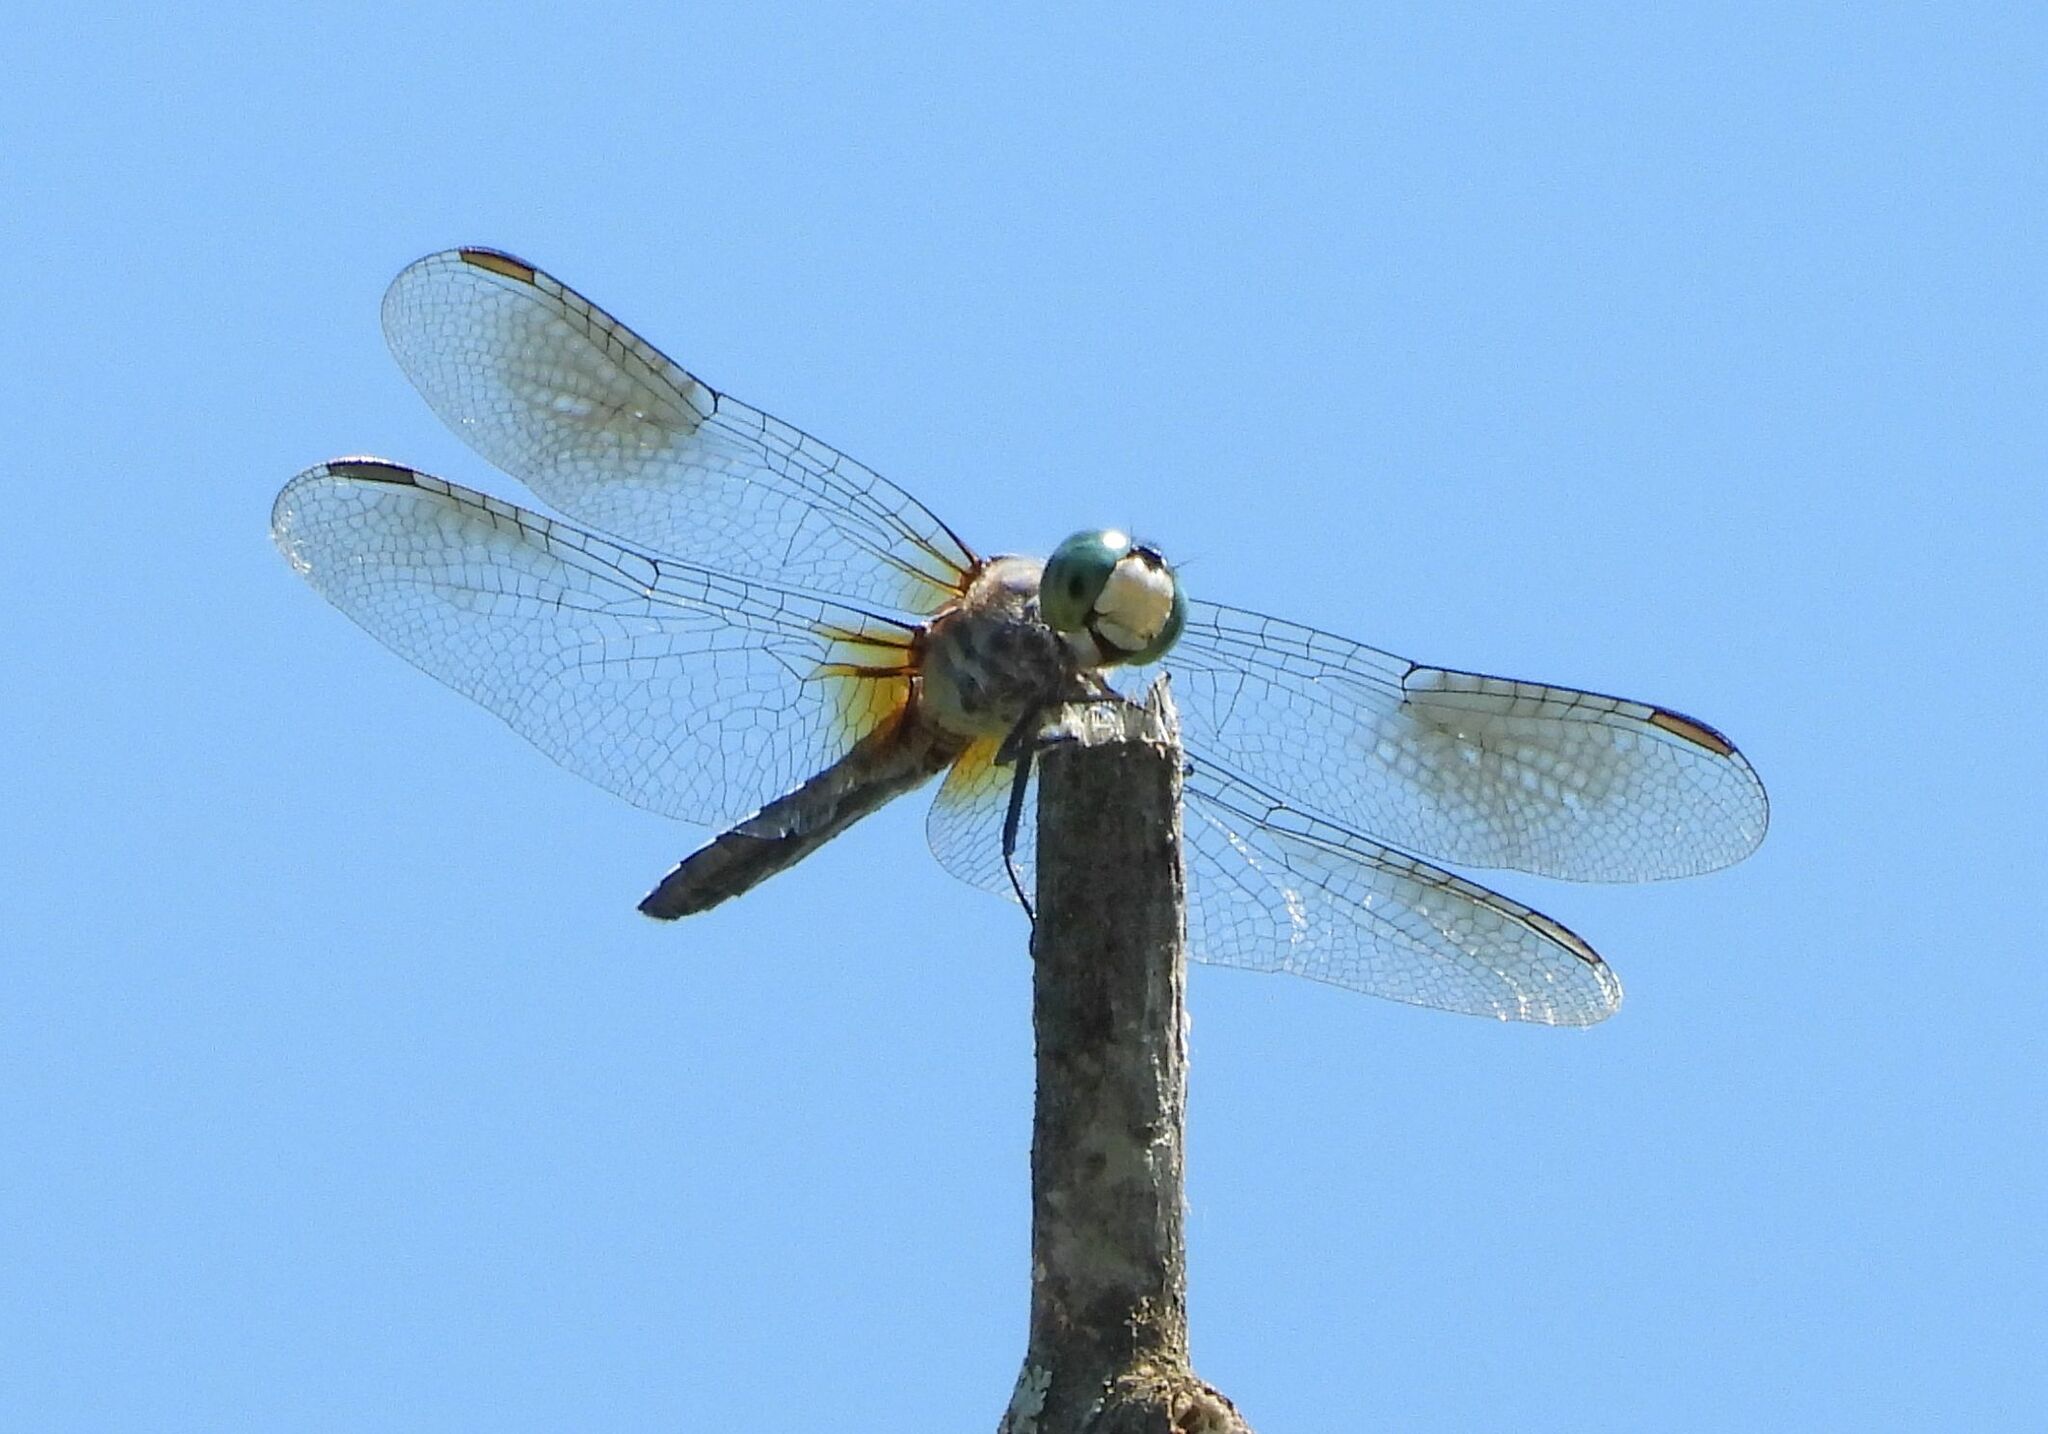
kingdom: Animalia
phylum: Arthropoda
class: Insecta
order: Odonata
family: Libellulidae
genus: Pachydiplax
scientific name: Pachydiplax longipennis
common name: Blue dasher
